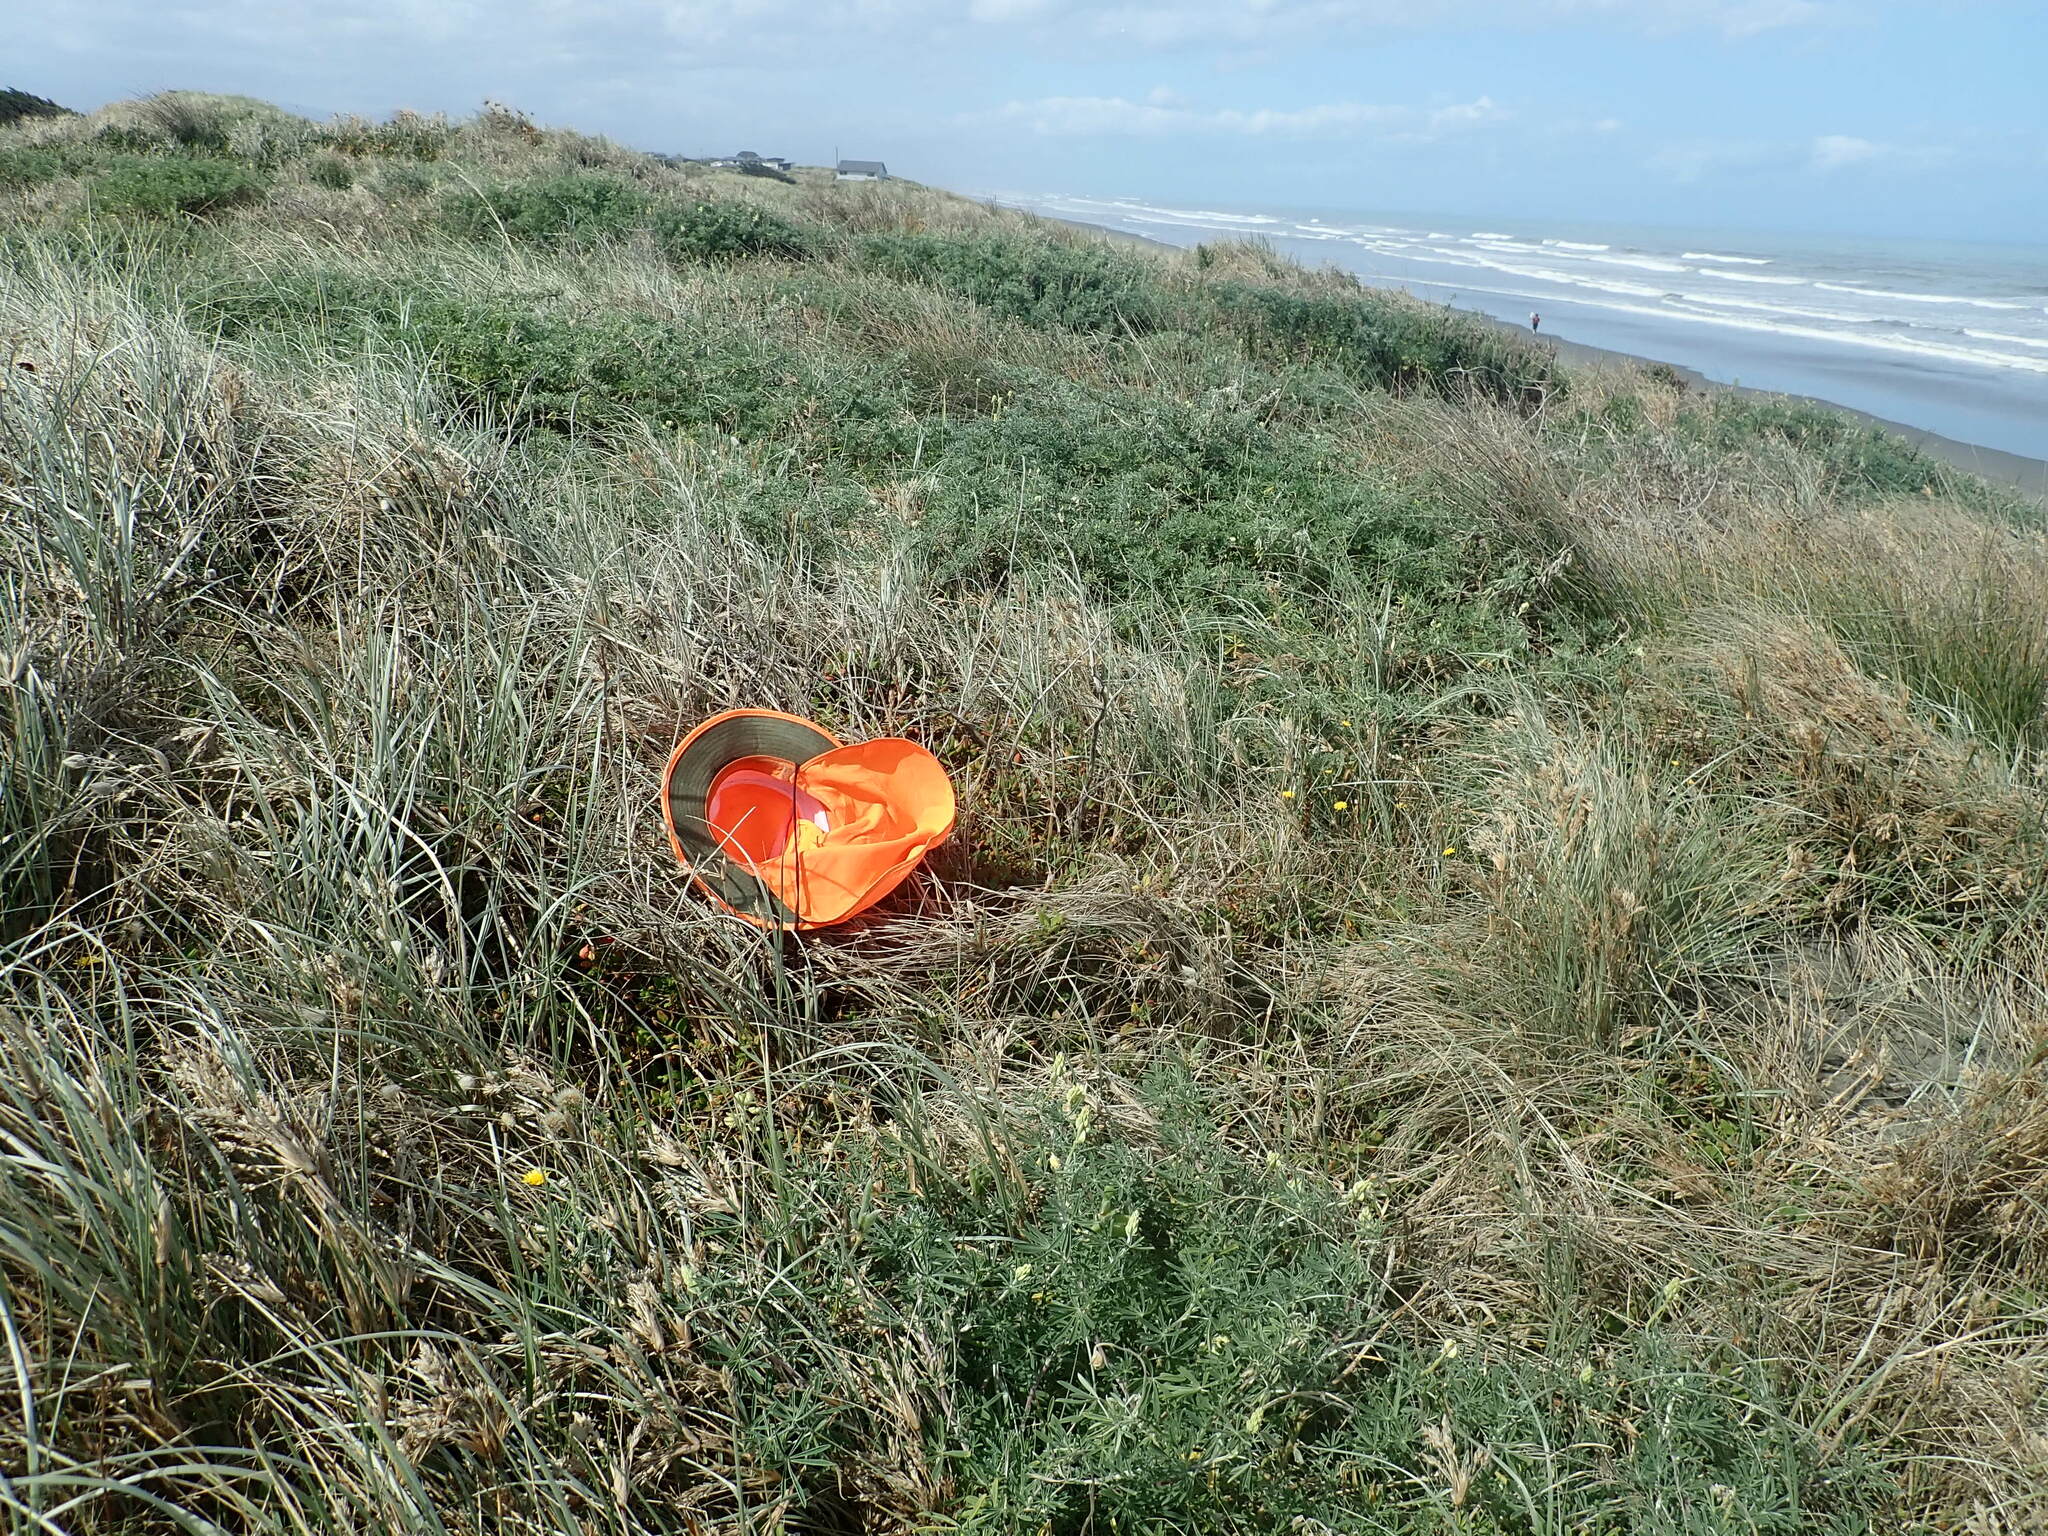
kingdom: Plantae
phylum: Tracheophyta
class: Magnoliopsida
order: Caryophyllales
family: Aizoaceae
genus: Tetragonia
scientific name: Tetragonia implexicoma
